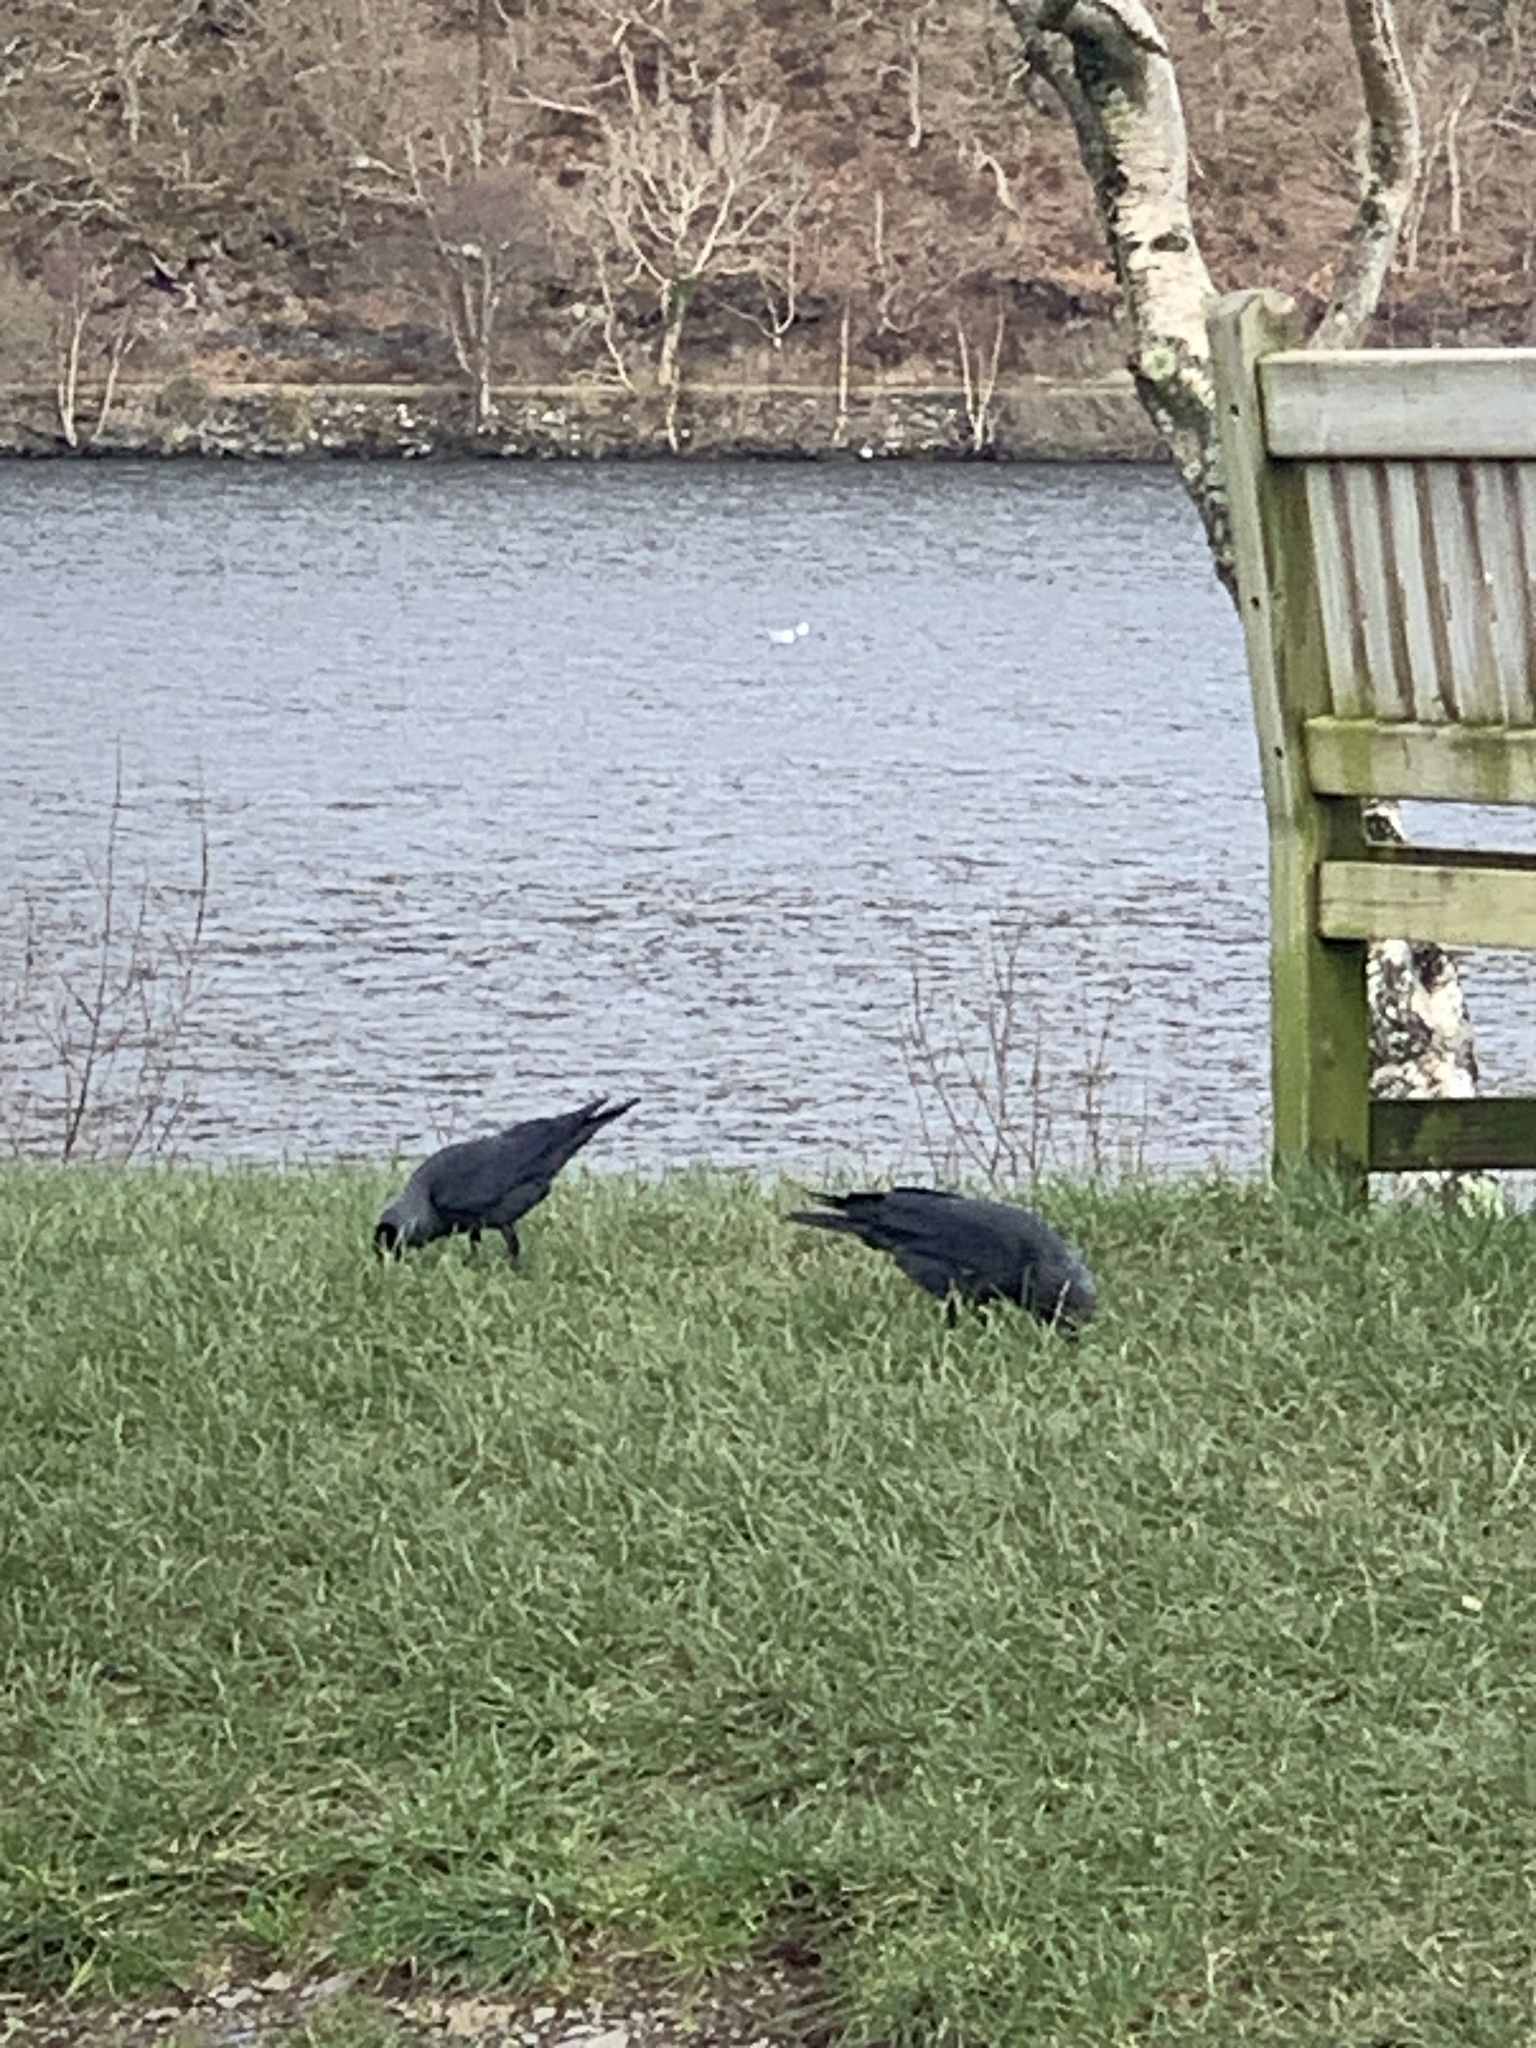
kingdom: Animalia
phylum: Chordata
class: Aves
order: Passeriformes
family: Corvidae
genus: Coloeus
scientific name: Coloeus monedula
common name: Western jackdaw
